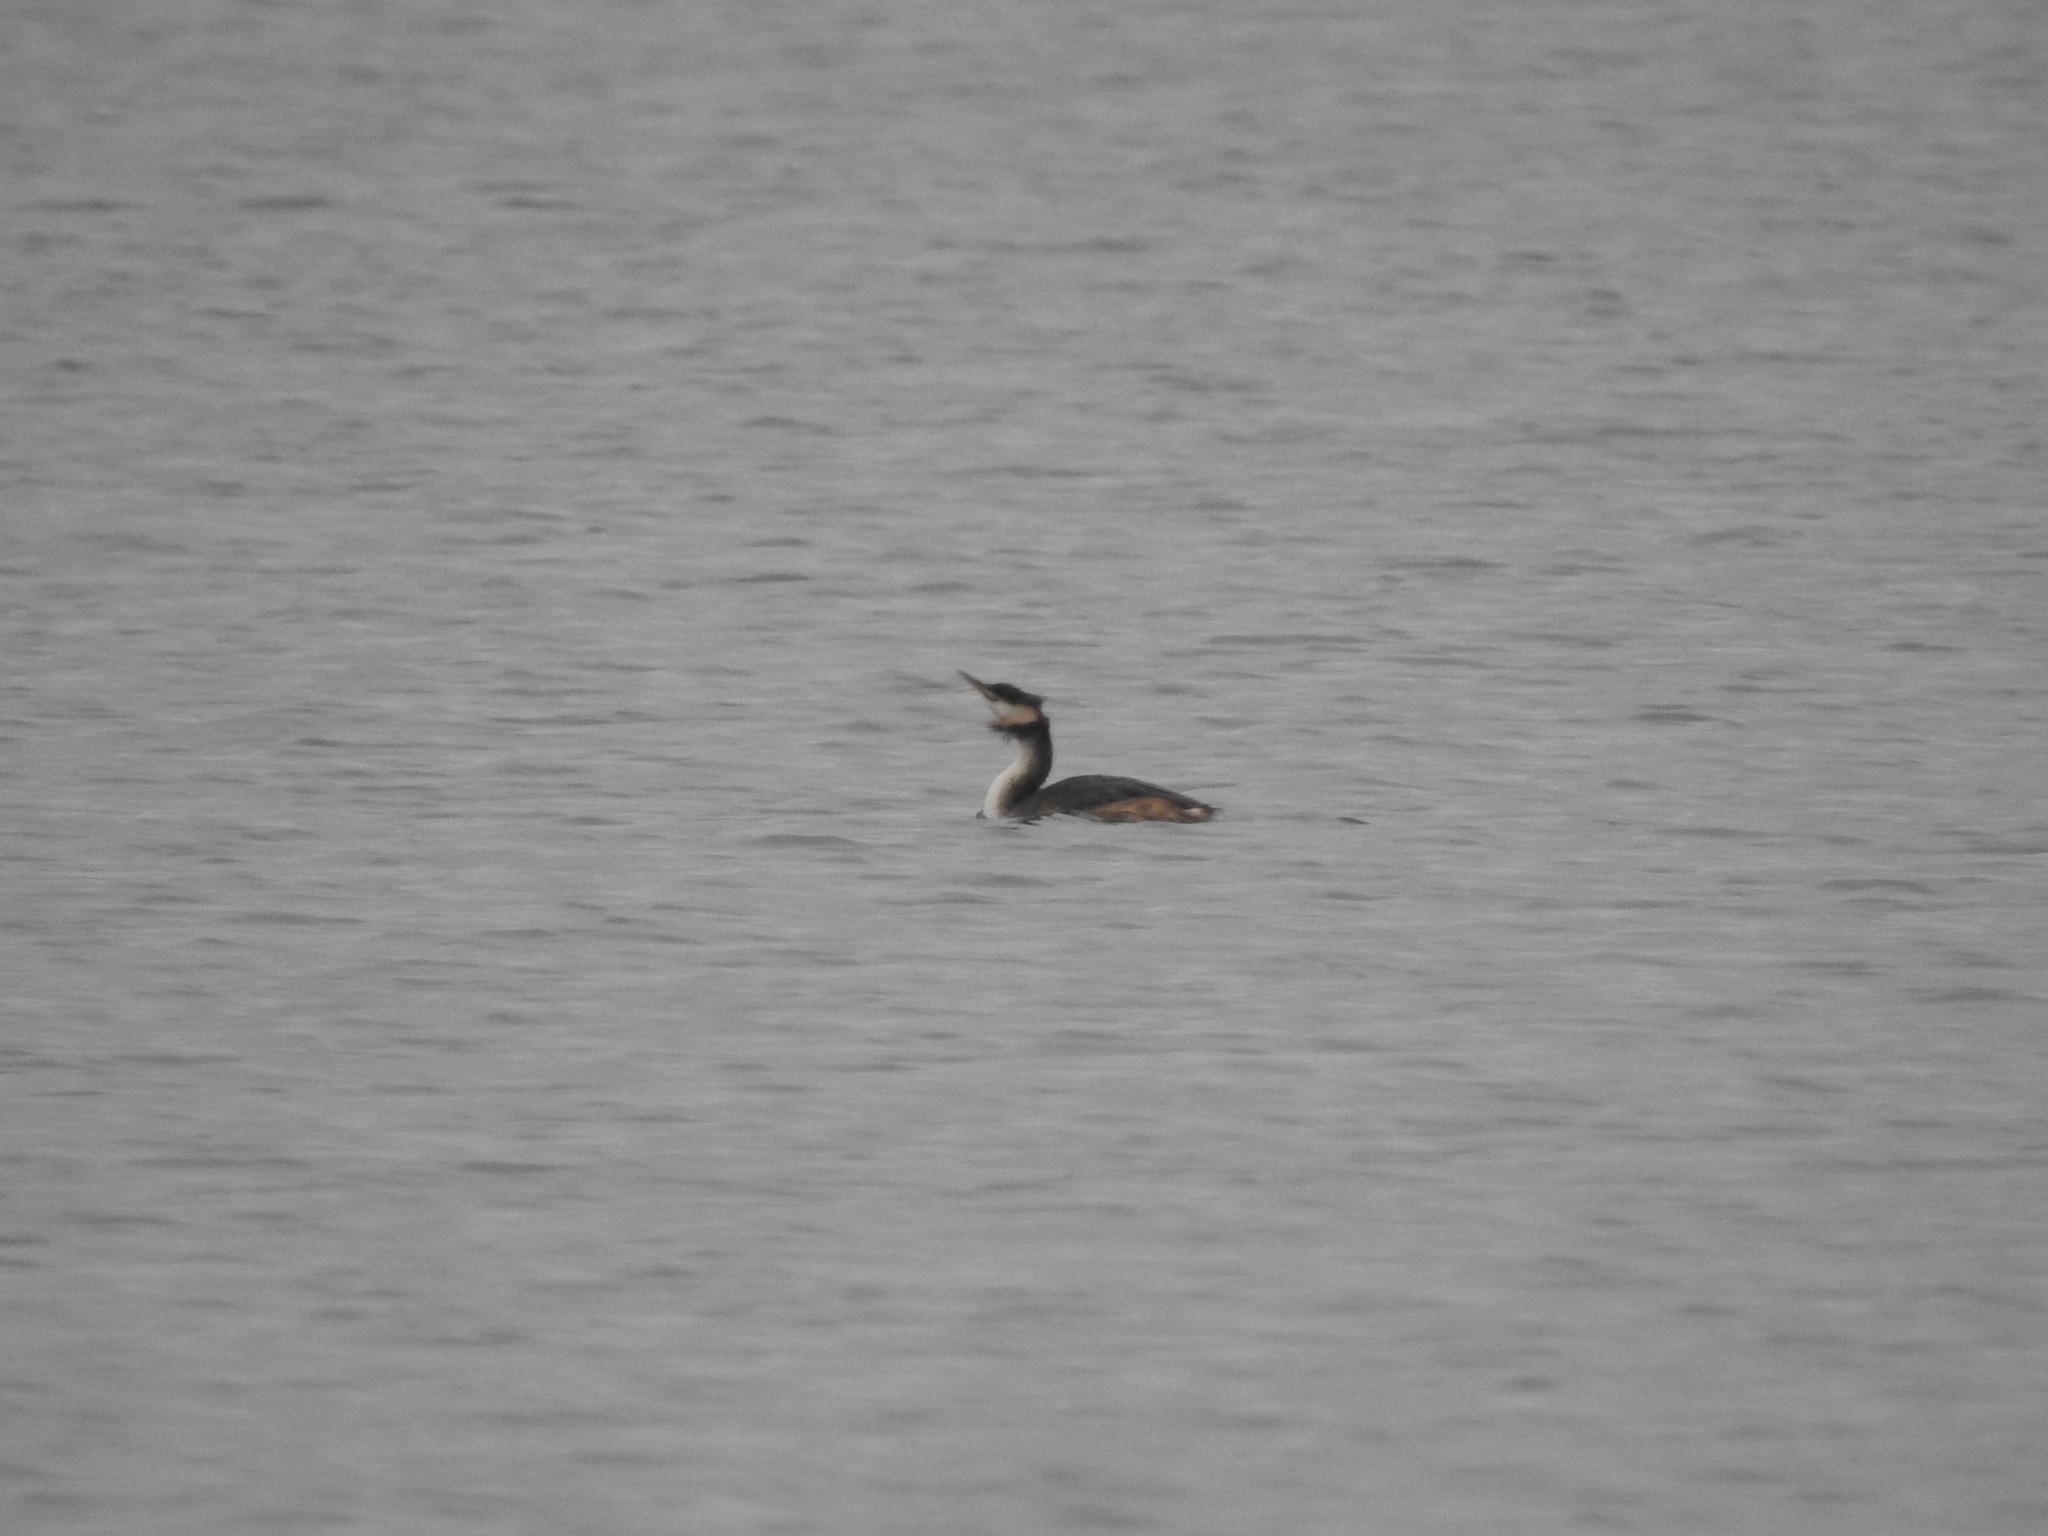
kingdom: Animalia
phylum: Chordata
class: Aves
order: Podicipediformes
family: Podicipedidae
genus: Podiceps
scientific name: Podiceps cristatus
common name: Great crested grebe
